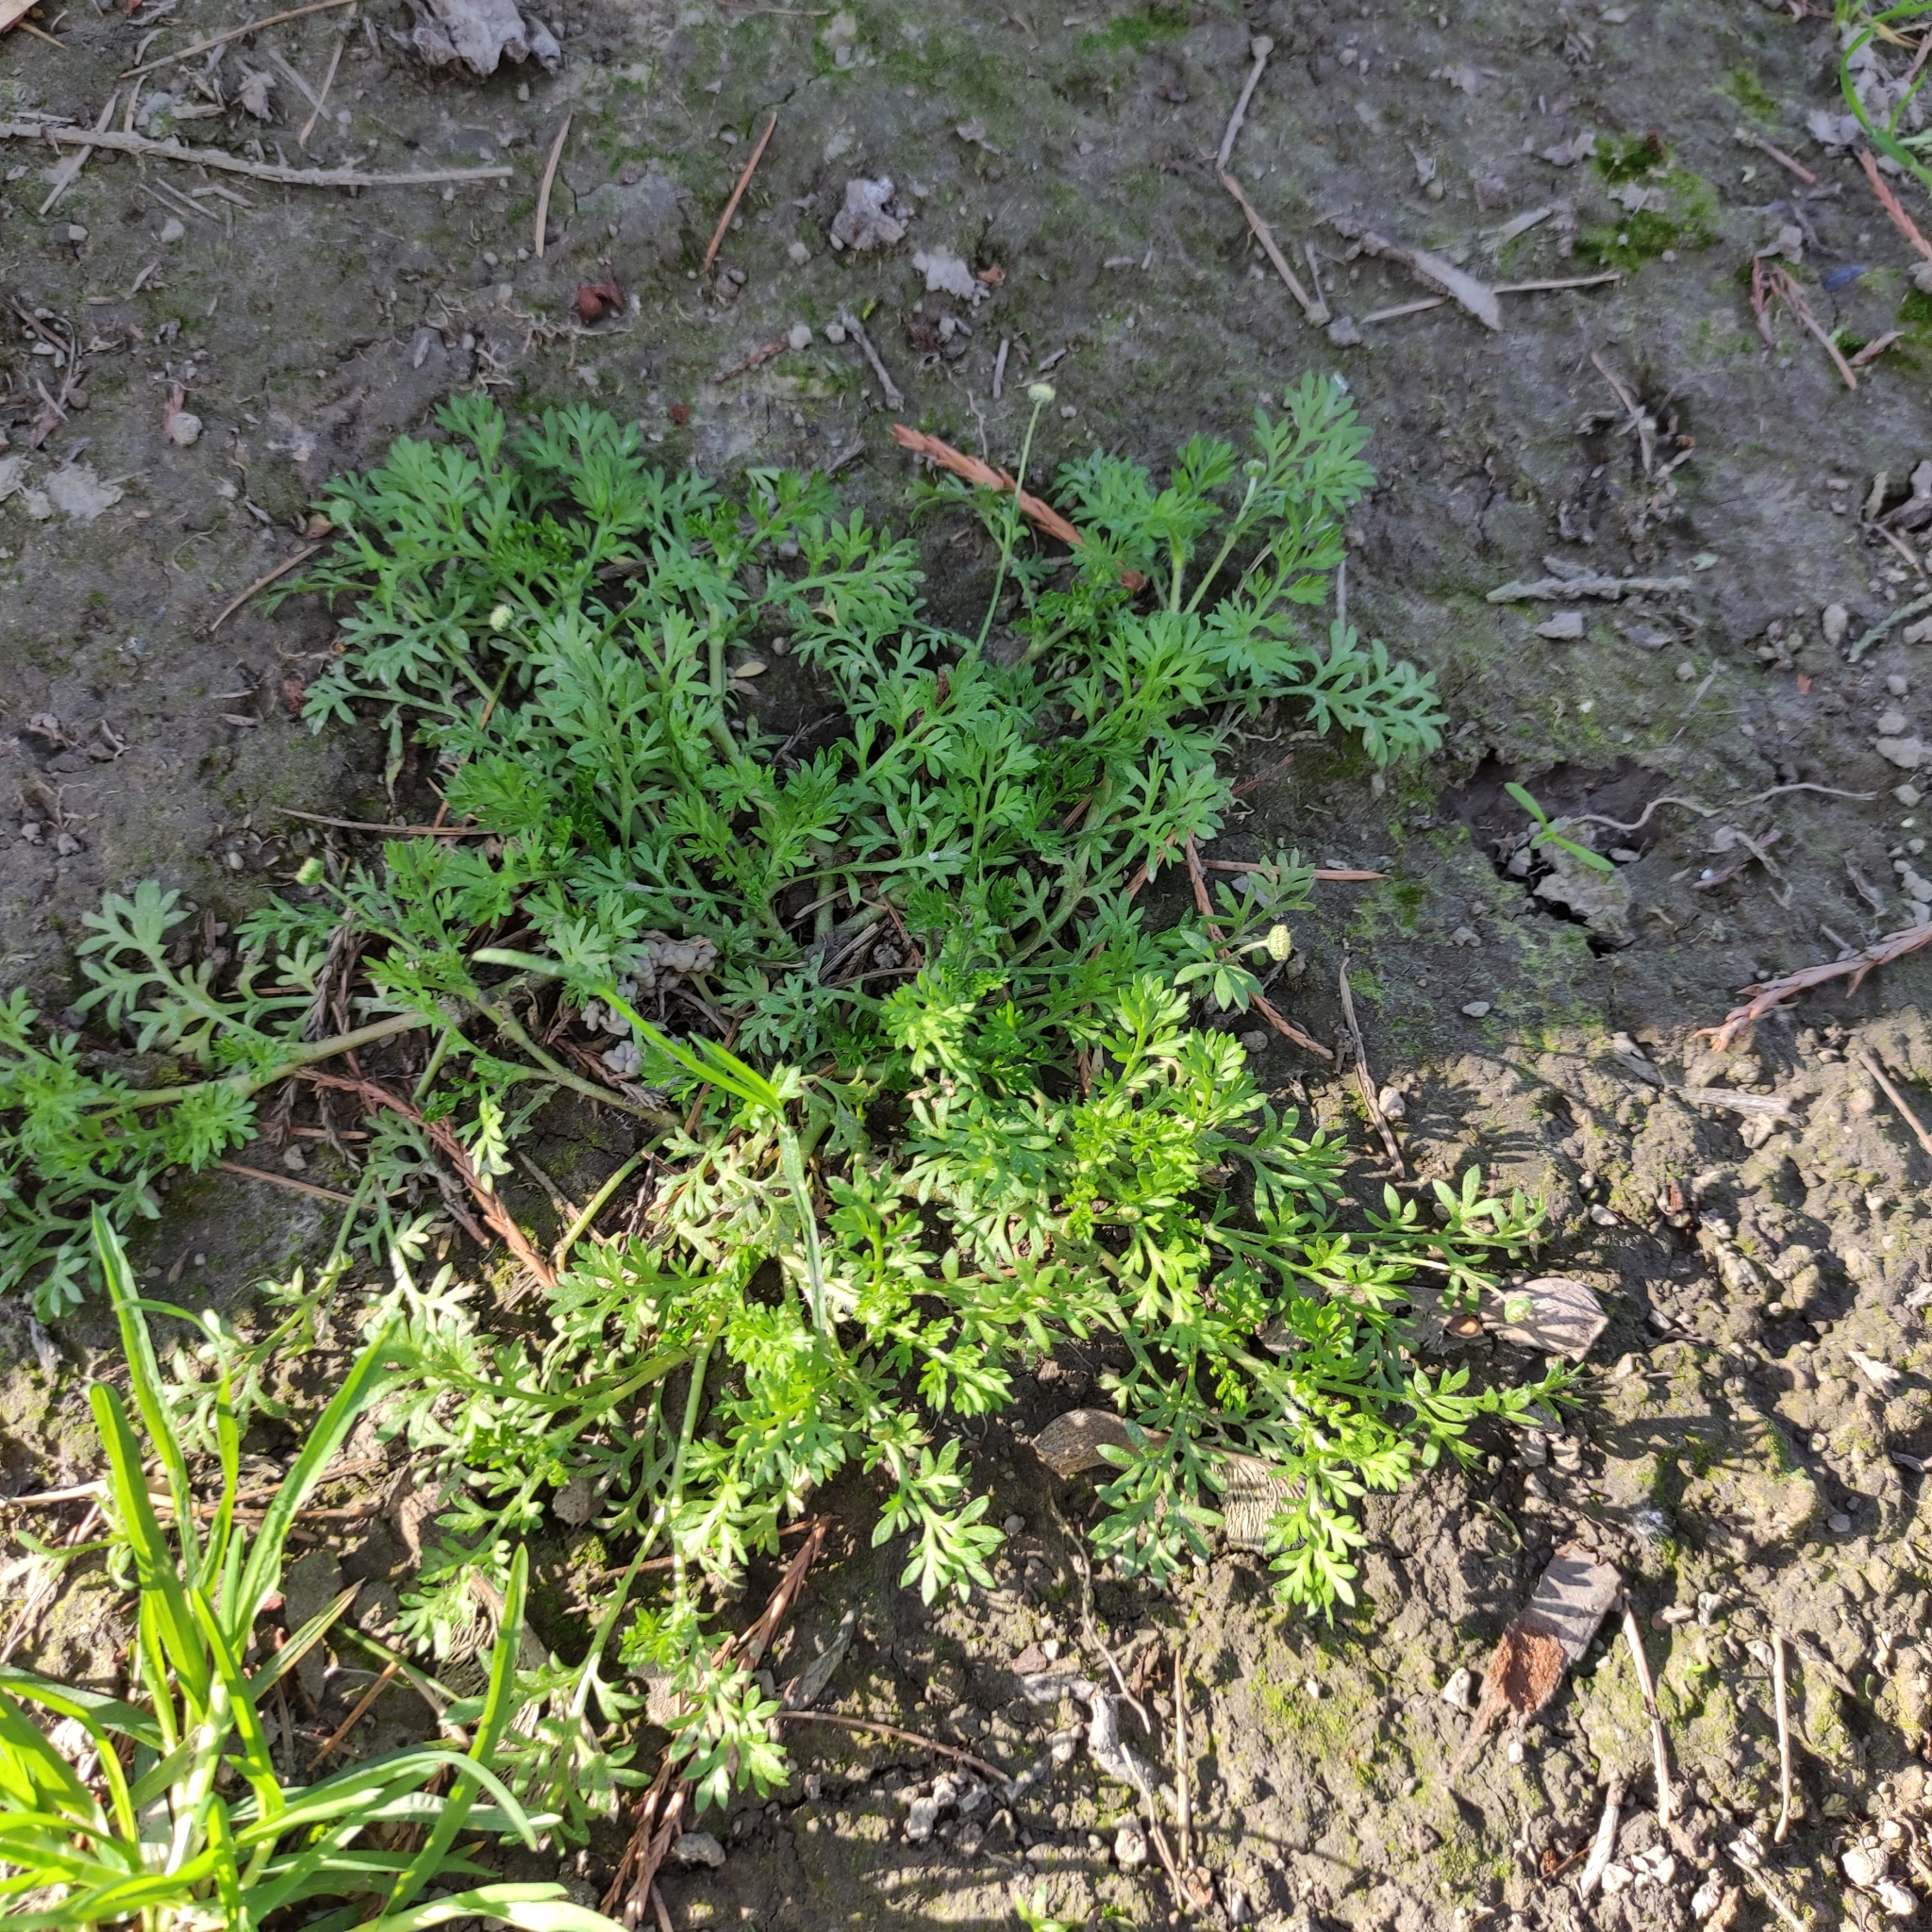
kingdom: Plantae
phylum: Tracheophyta
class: Magnoliopsida
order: Asterales
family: Asteraceae
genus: Cotula
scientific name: Cotula australis
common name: Australian waterbuttons
